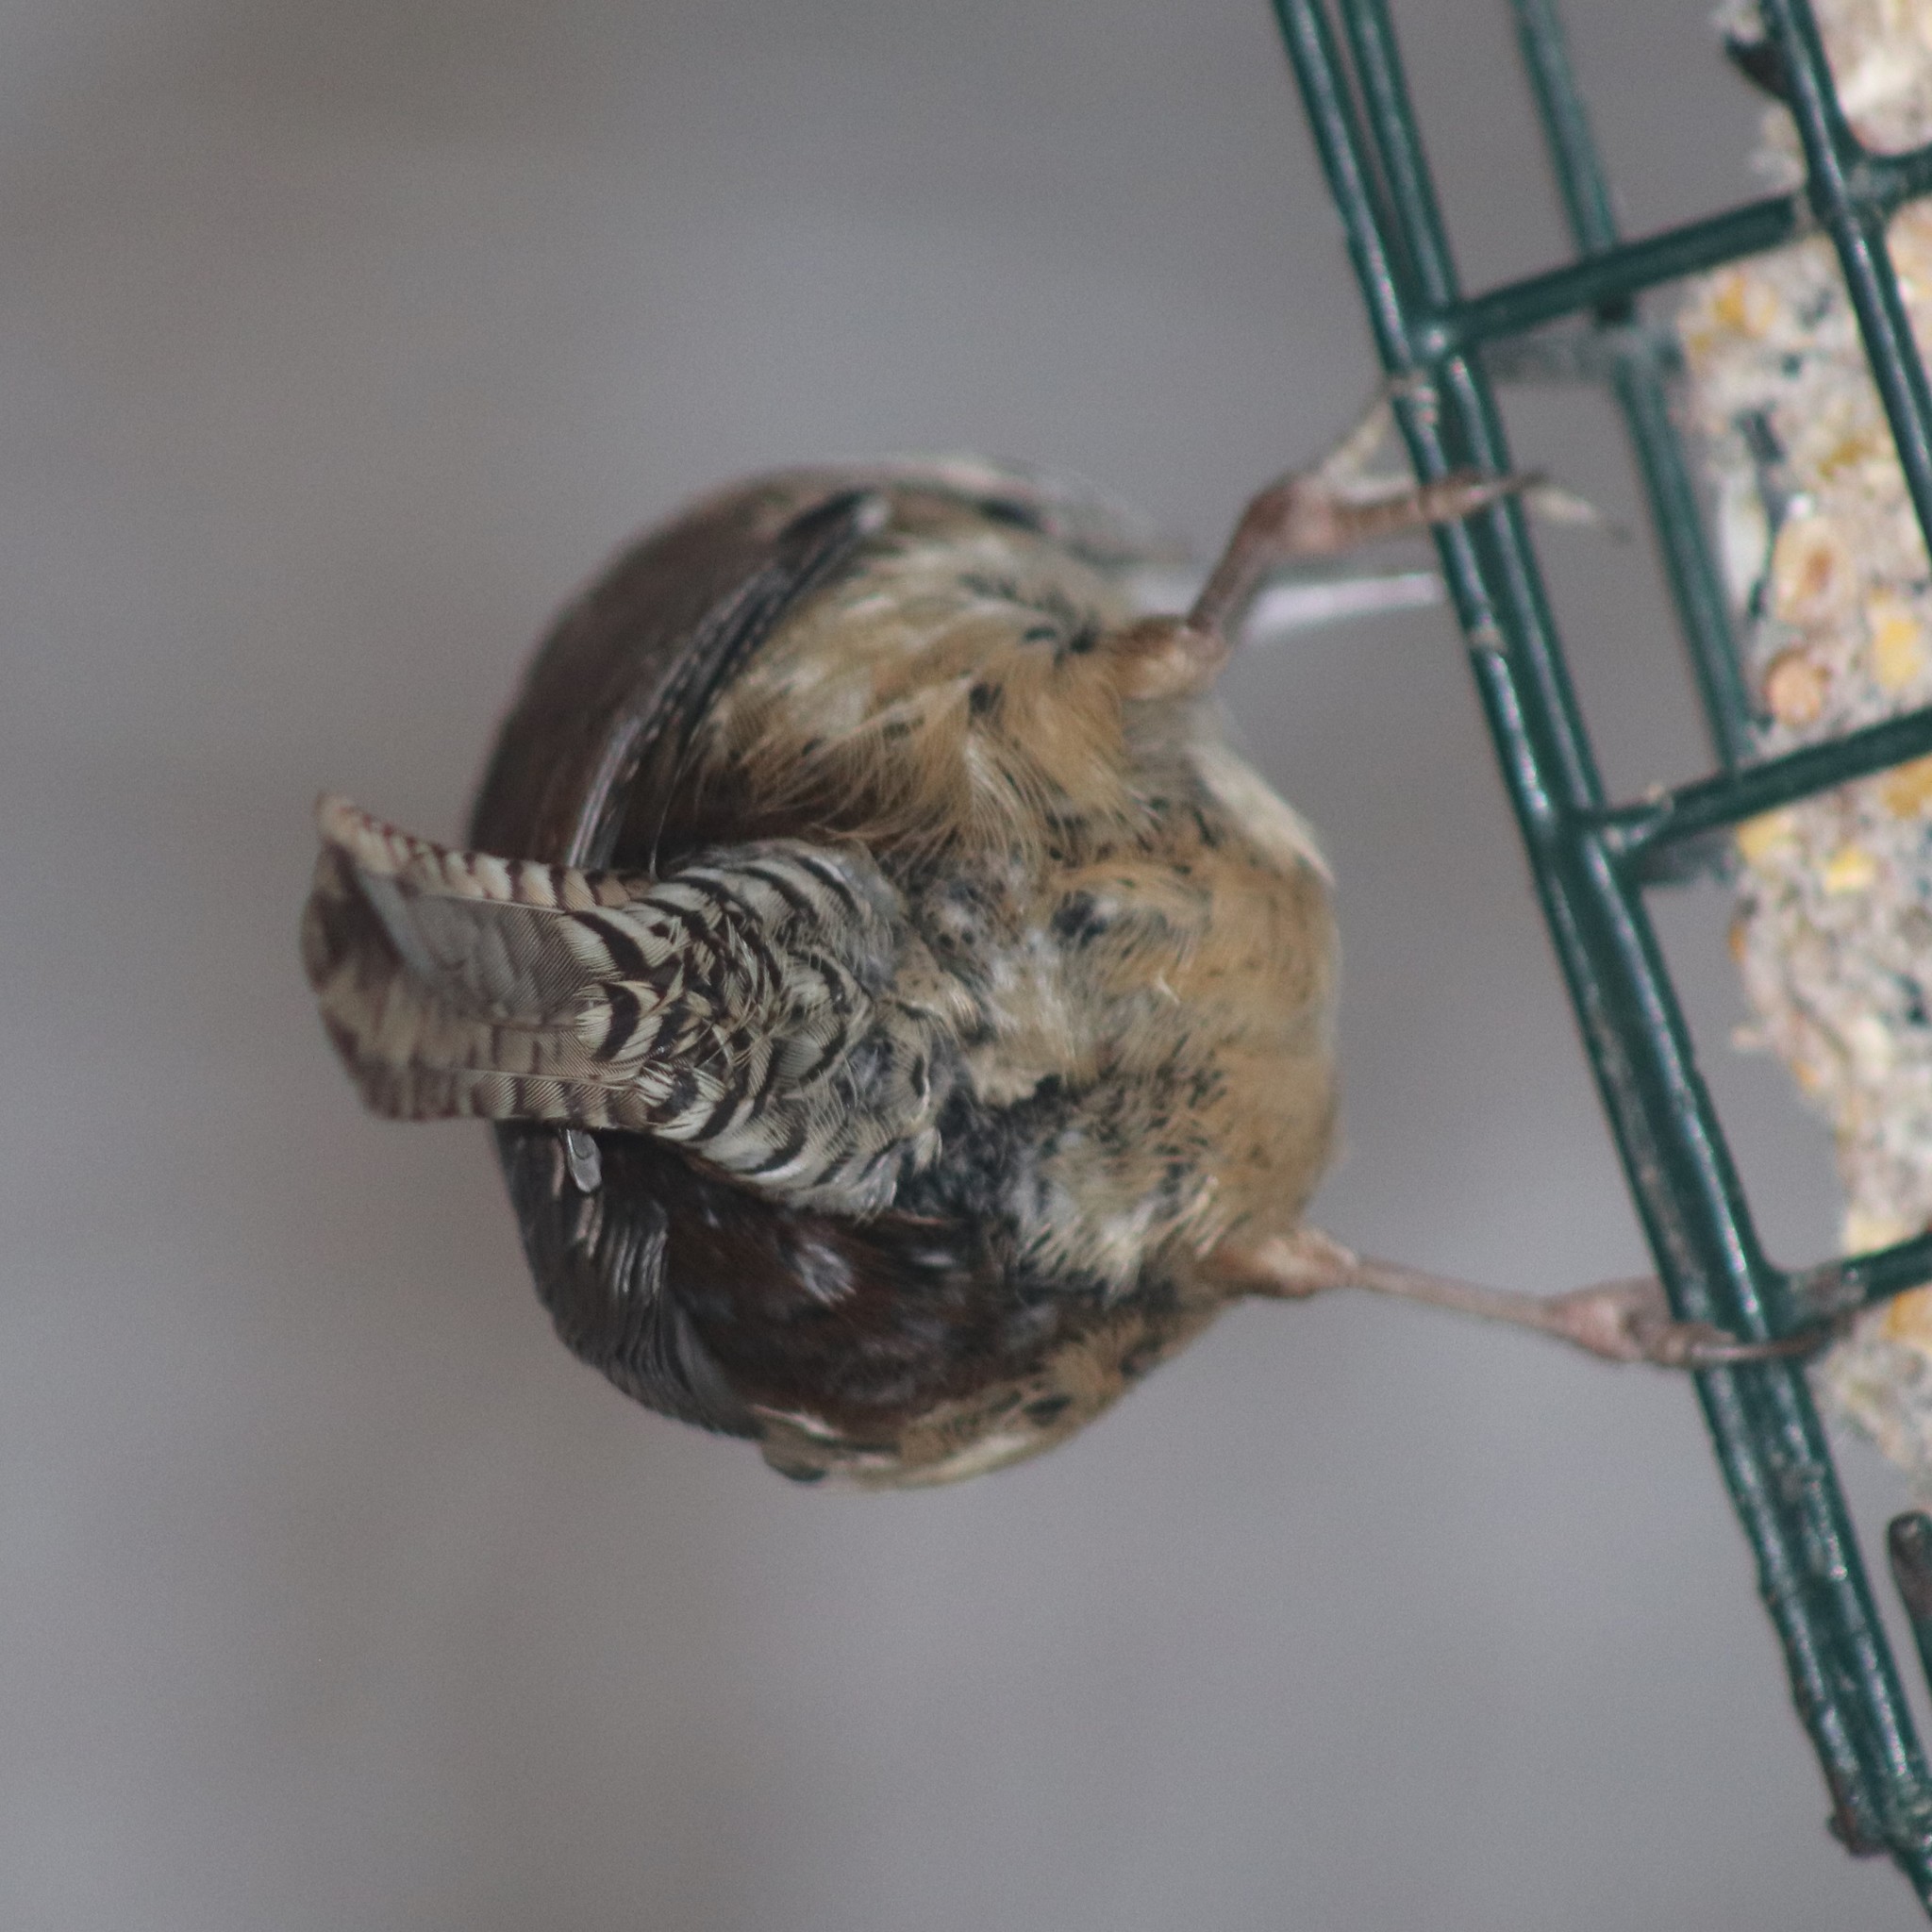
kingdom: Animalia
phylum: Chordata
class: Aves
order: Passeriformes
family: Troglodytidae
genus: Thryothorus
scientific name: Thryothorus ludovicianus
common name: Carolina wren
